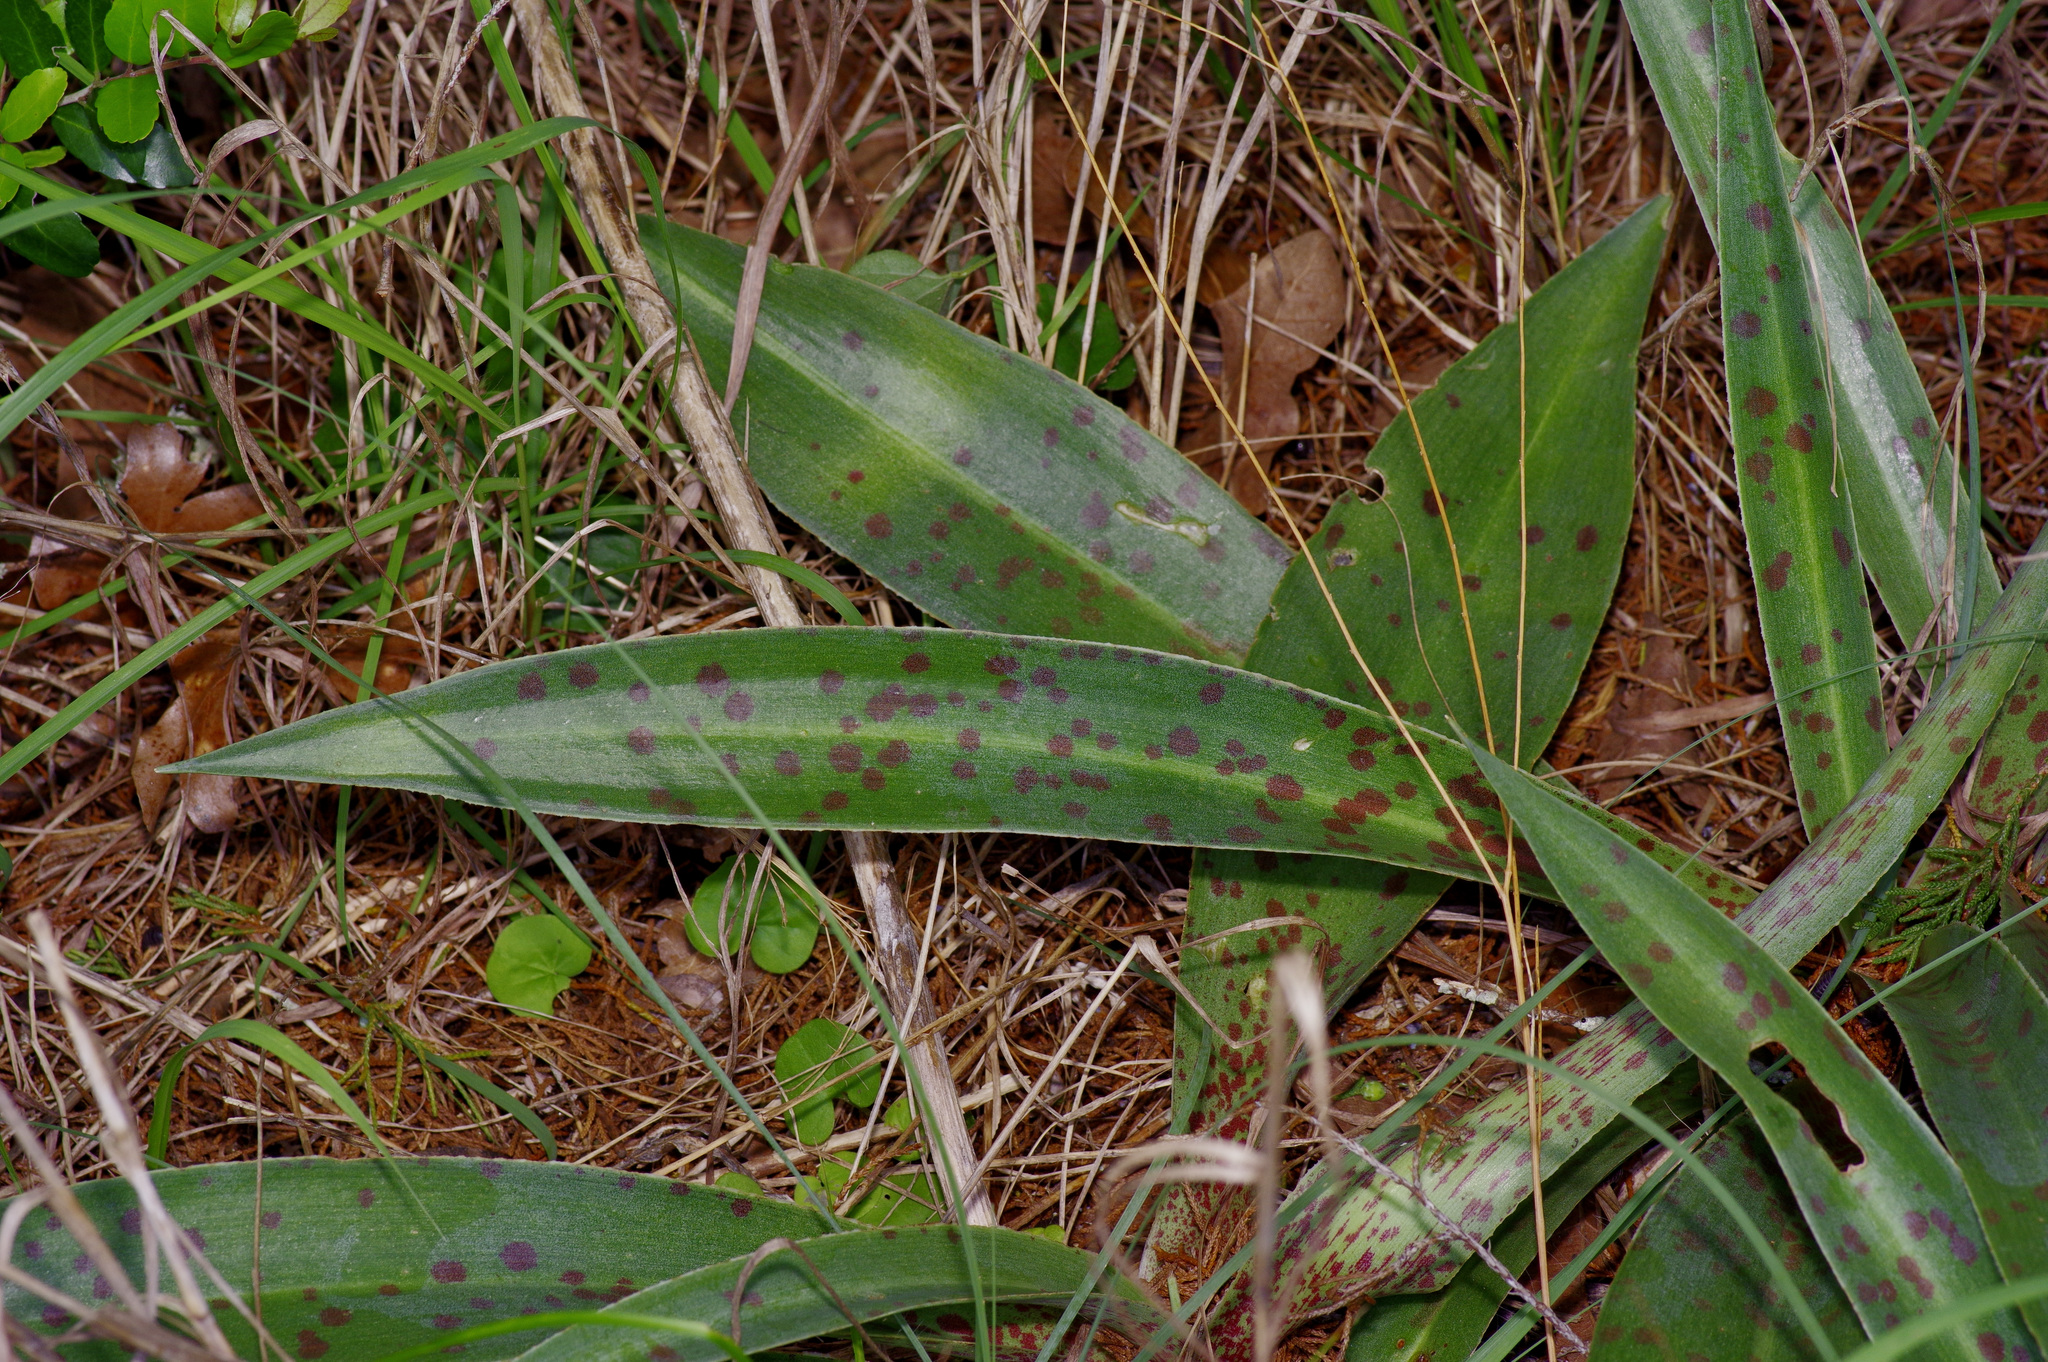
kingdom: Plantae
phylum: Tracheophyta
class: Liliopsida
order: Asparagales
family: Asparagaceae
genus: Agave
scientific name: Agave virginica
